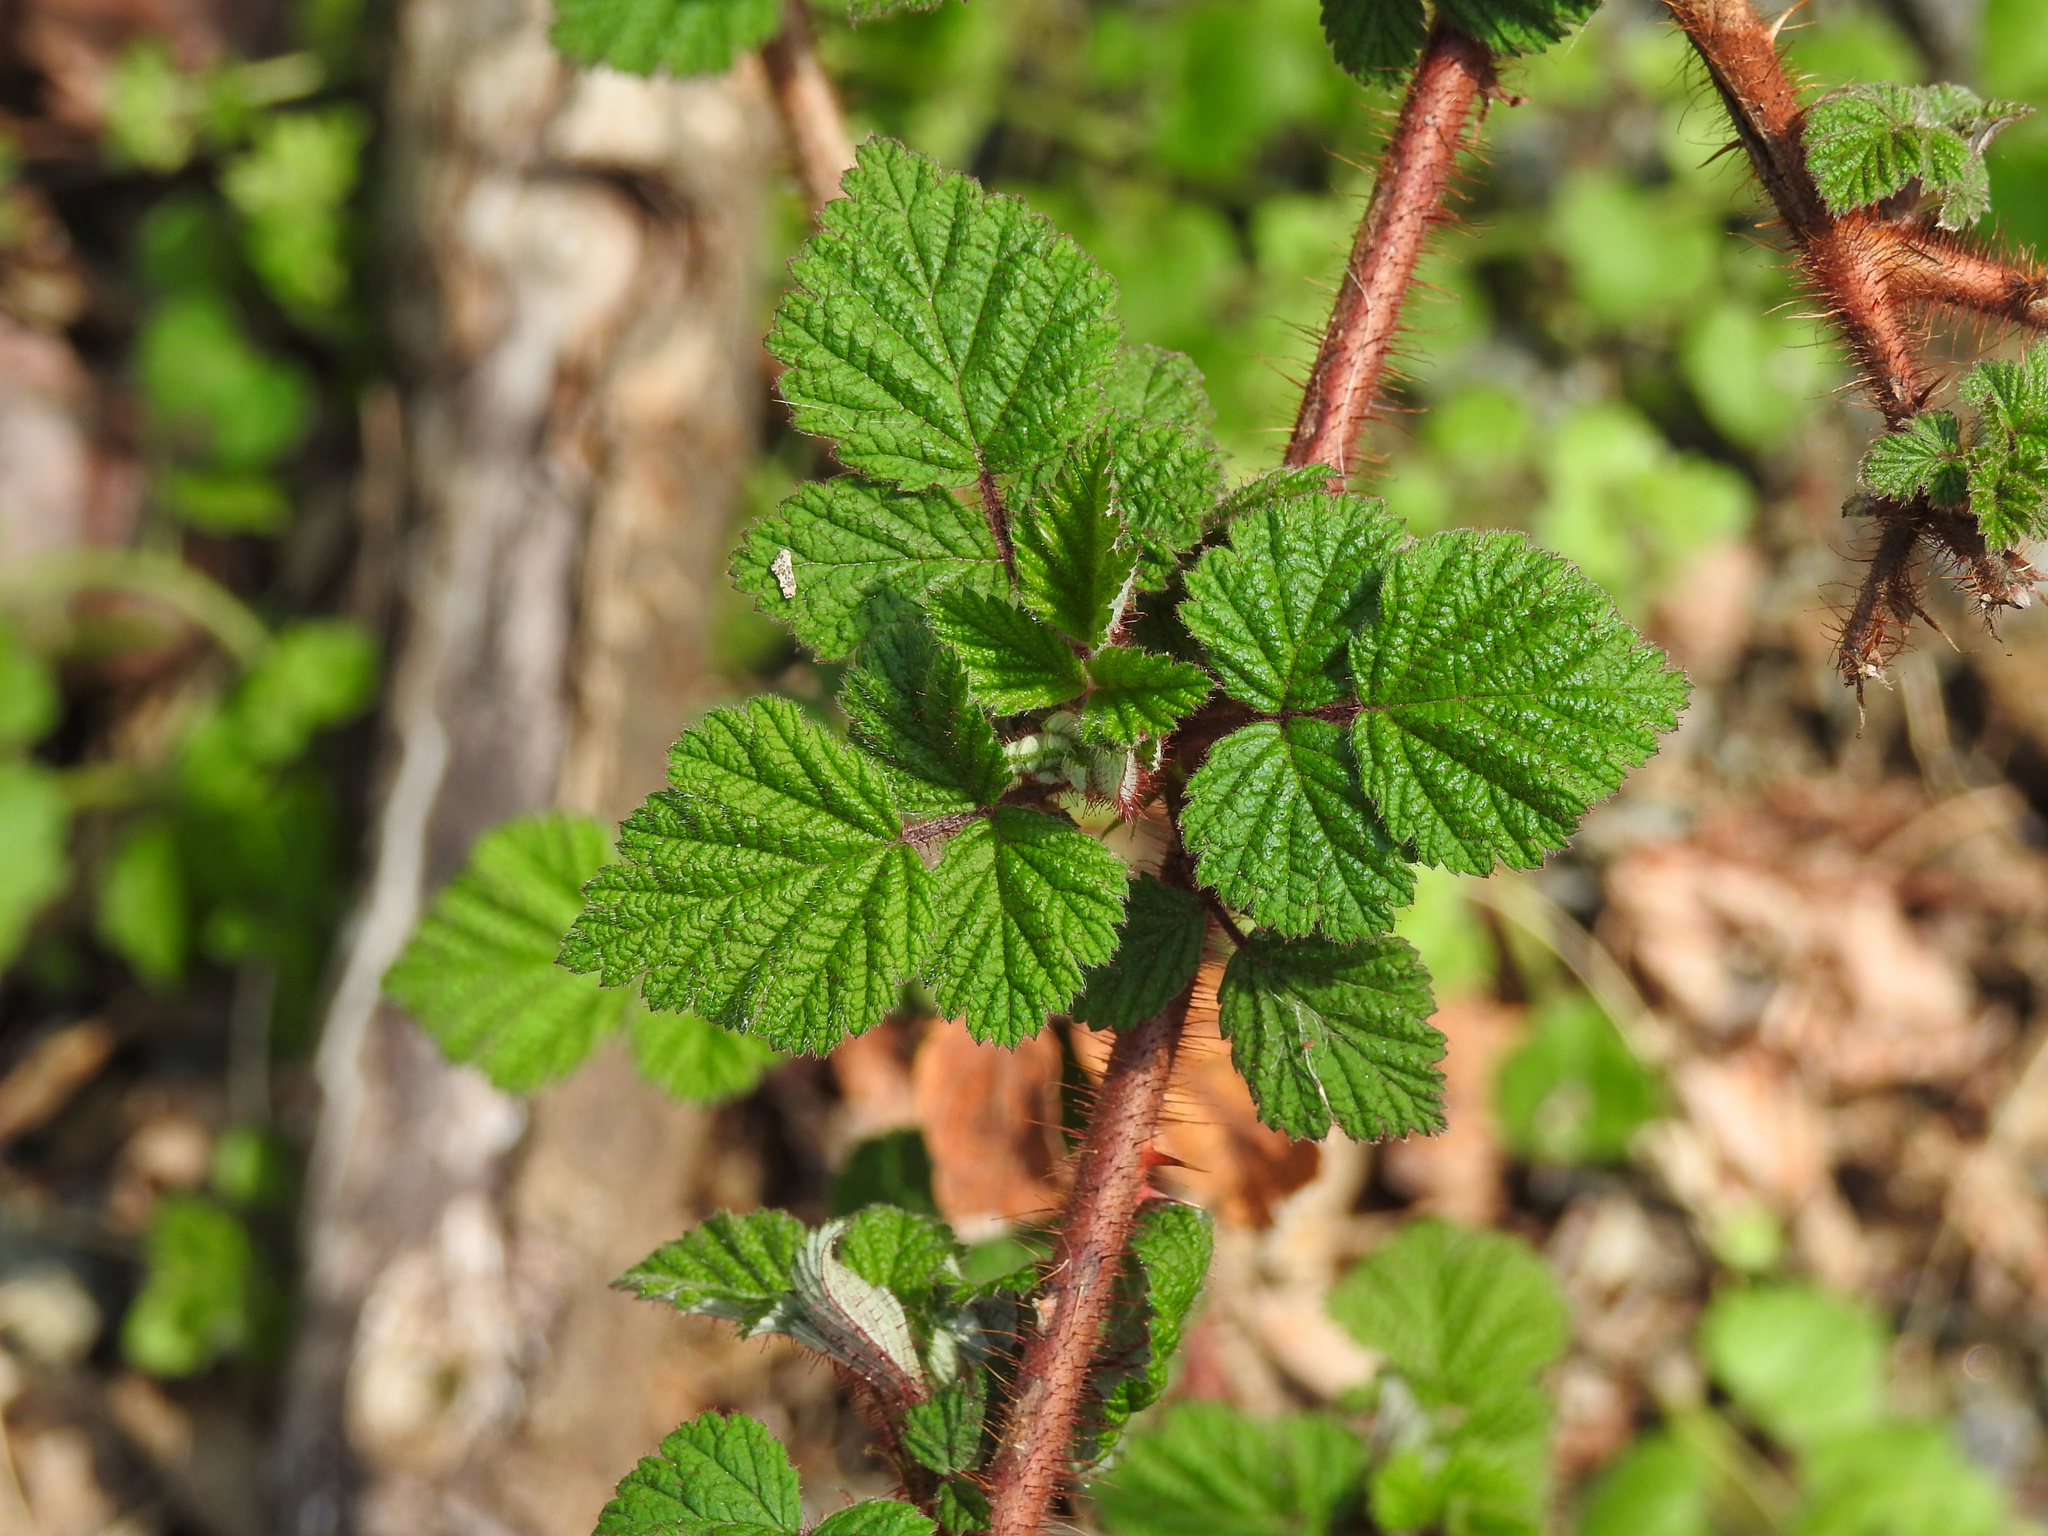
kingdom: Plantae
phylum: Tracheophyta
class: Magnoliopsida
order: Rosales
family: Rosaceae
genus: Rubus
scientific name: Rubus phoenicolasius
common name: Japanese wineberry
